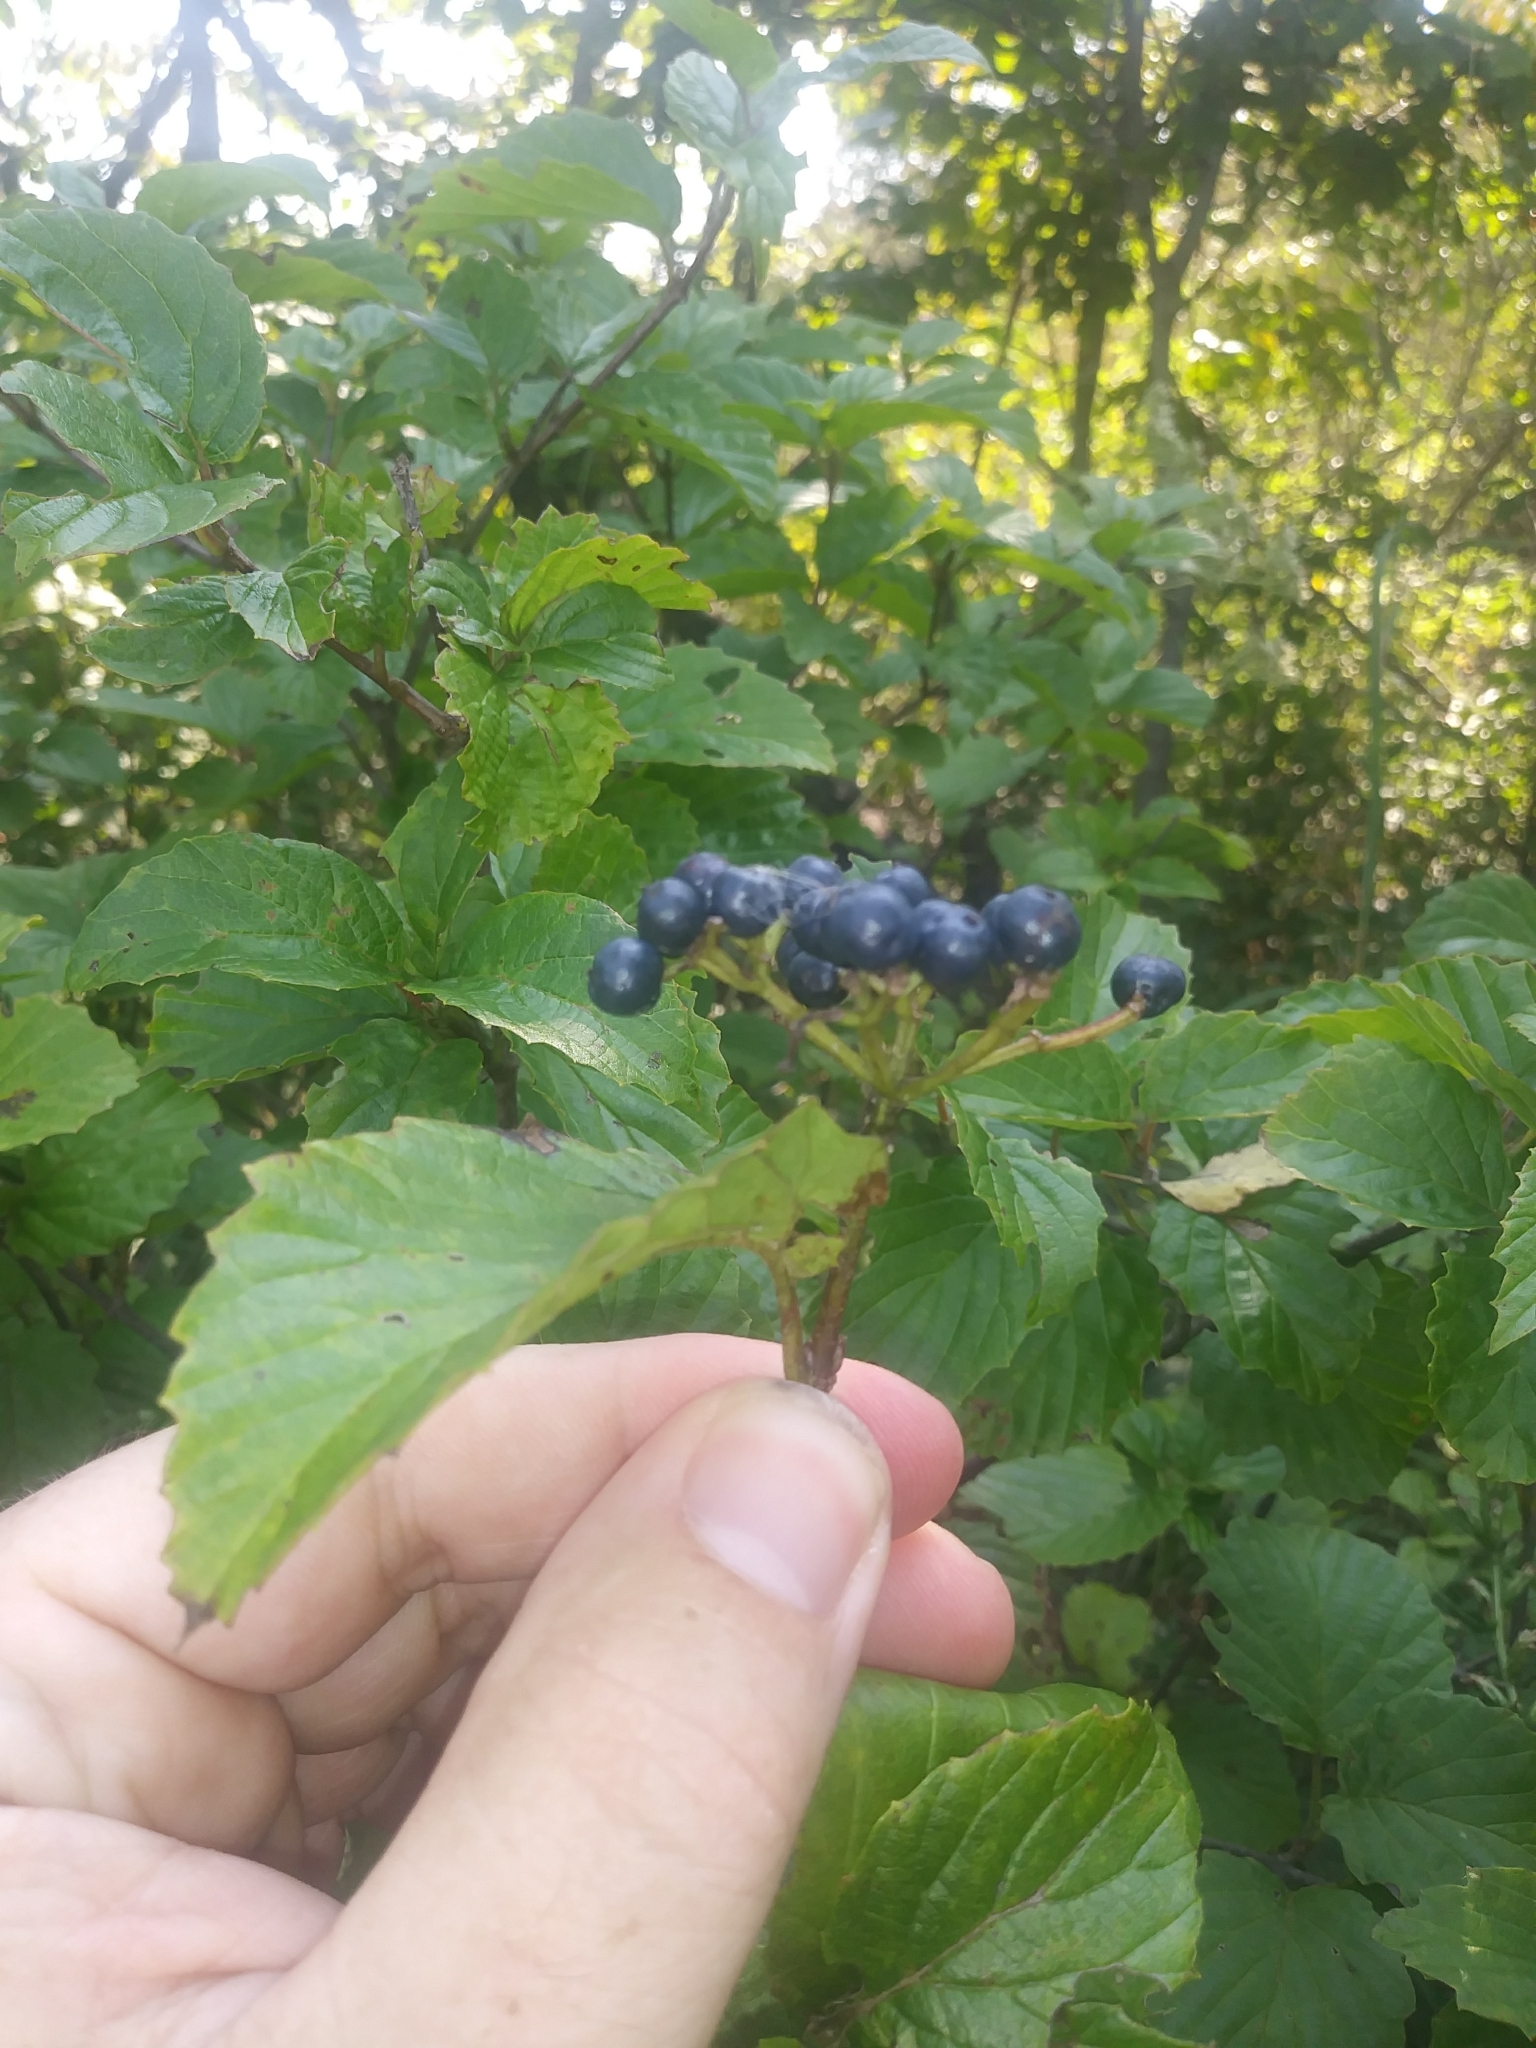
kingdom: Plantae
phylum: Tracheophyta
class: Magnoliopsida
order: Dipsacales
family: Viburnaceae
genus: Viburnum
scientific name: Viburnum dentatum
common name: Arrow-wood
